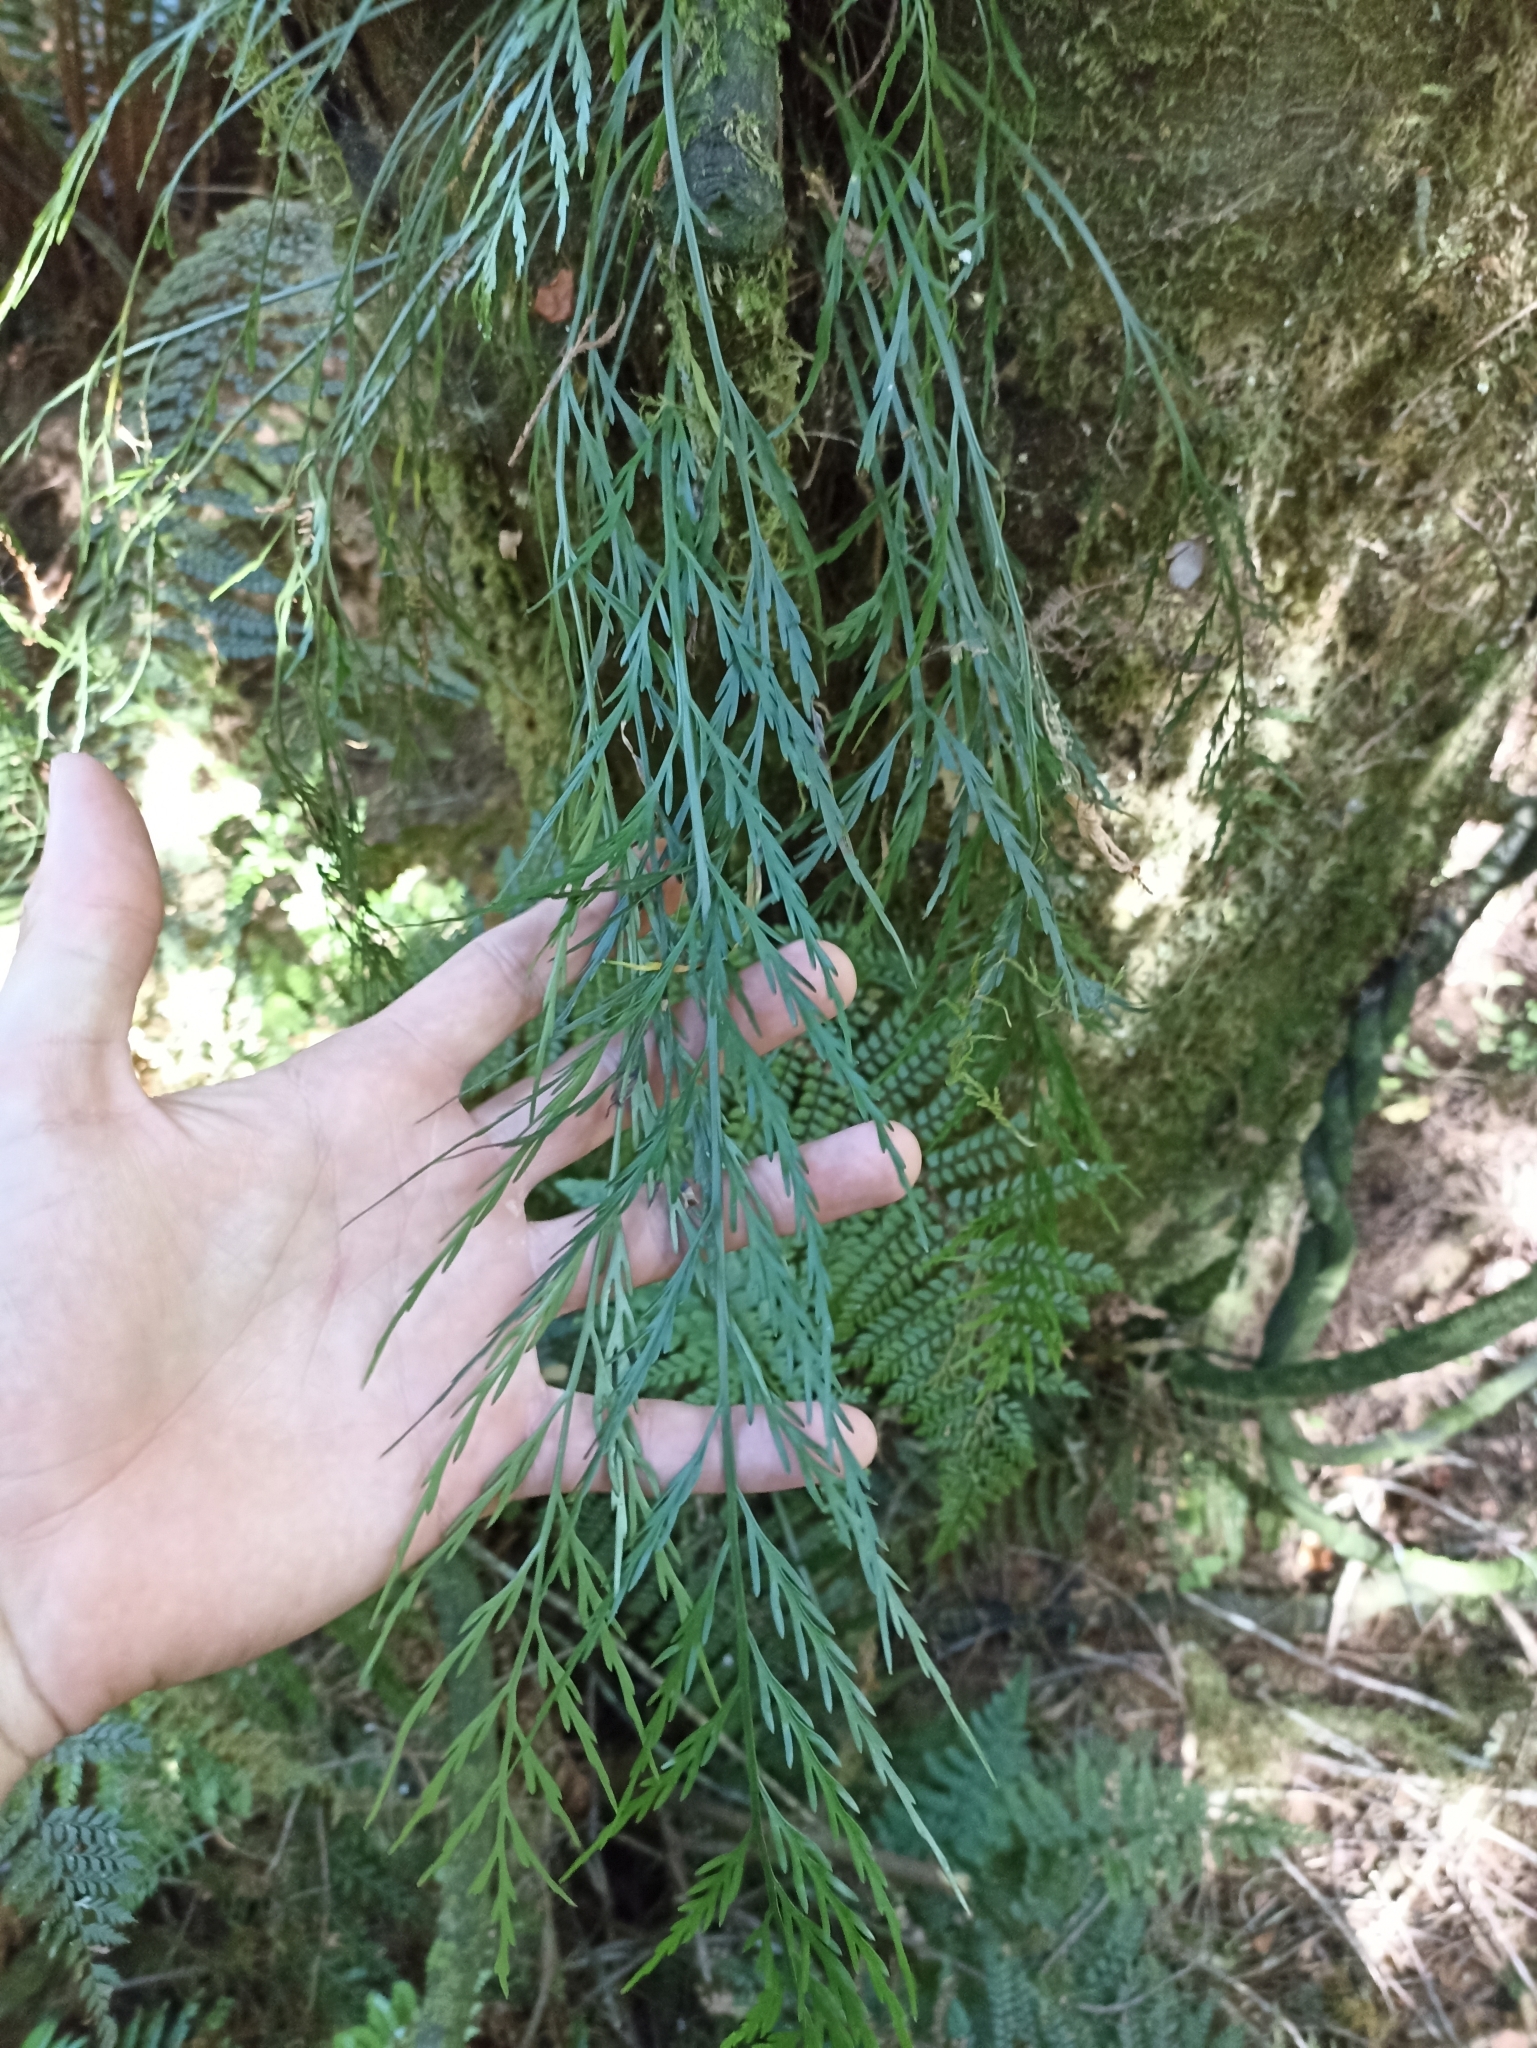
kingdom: Plantae
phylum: Tracheophyta
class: Polypodiopsida
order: Polypodiales
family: Aspleniaceae
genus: Asplenium
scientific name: Asplenium flaccidum
